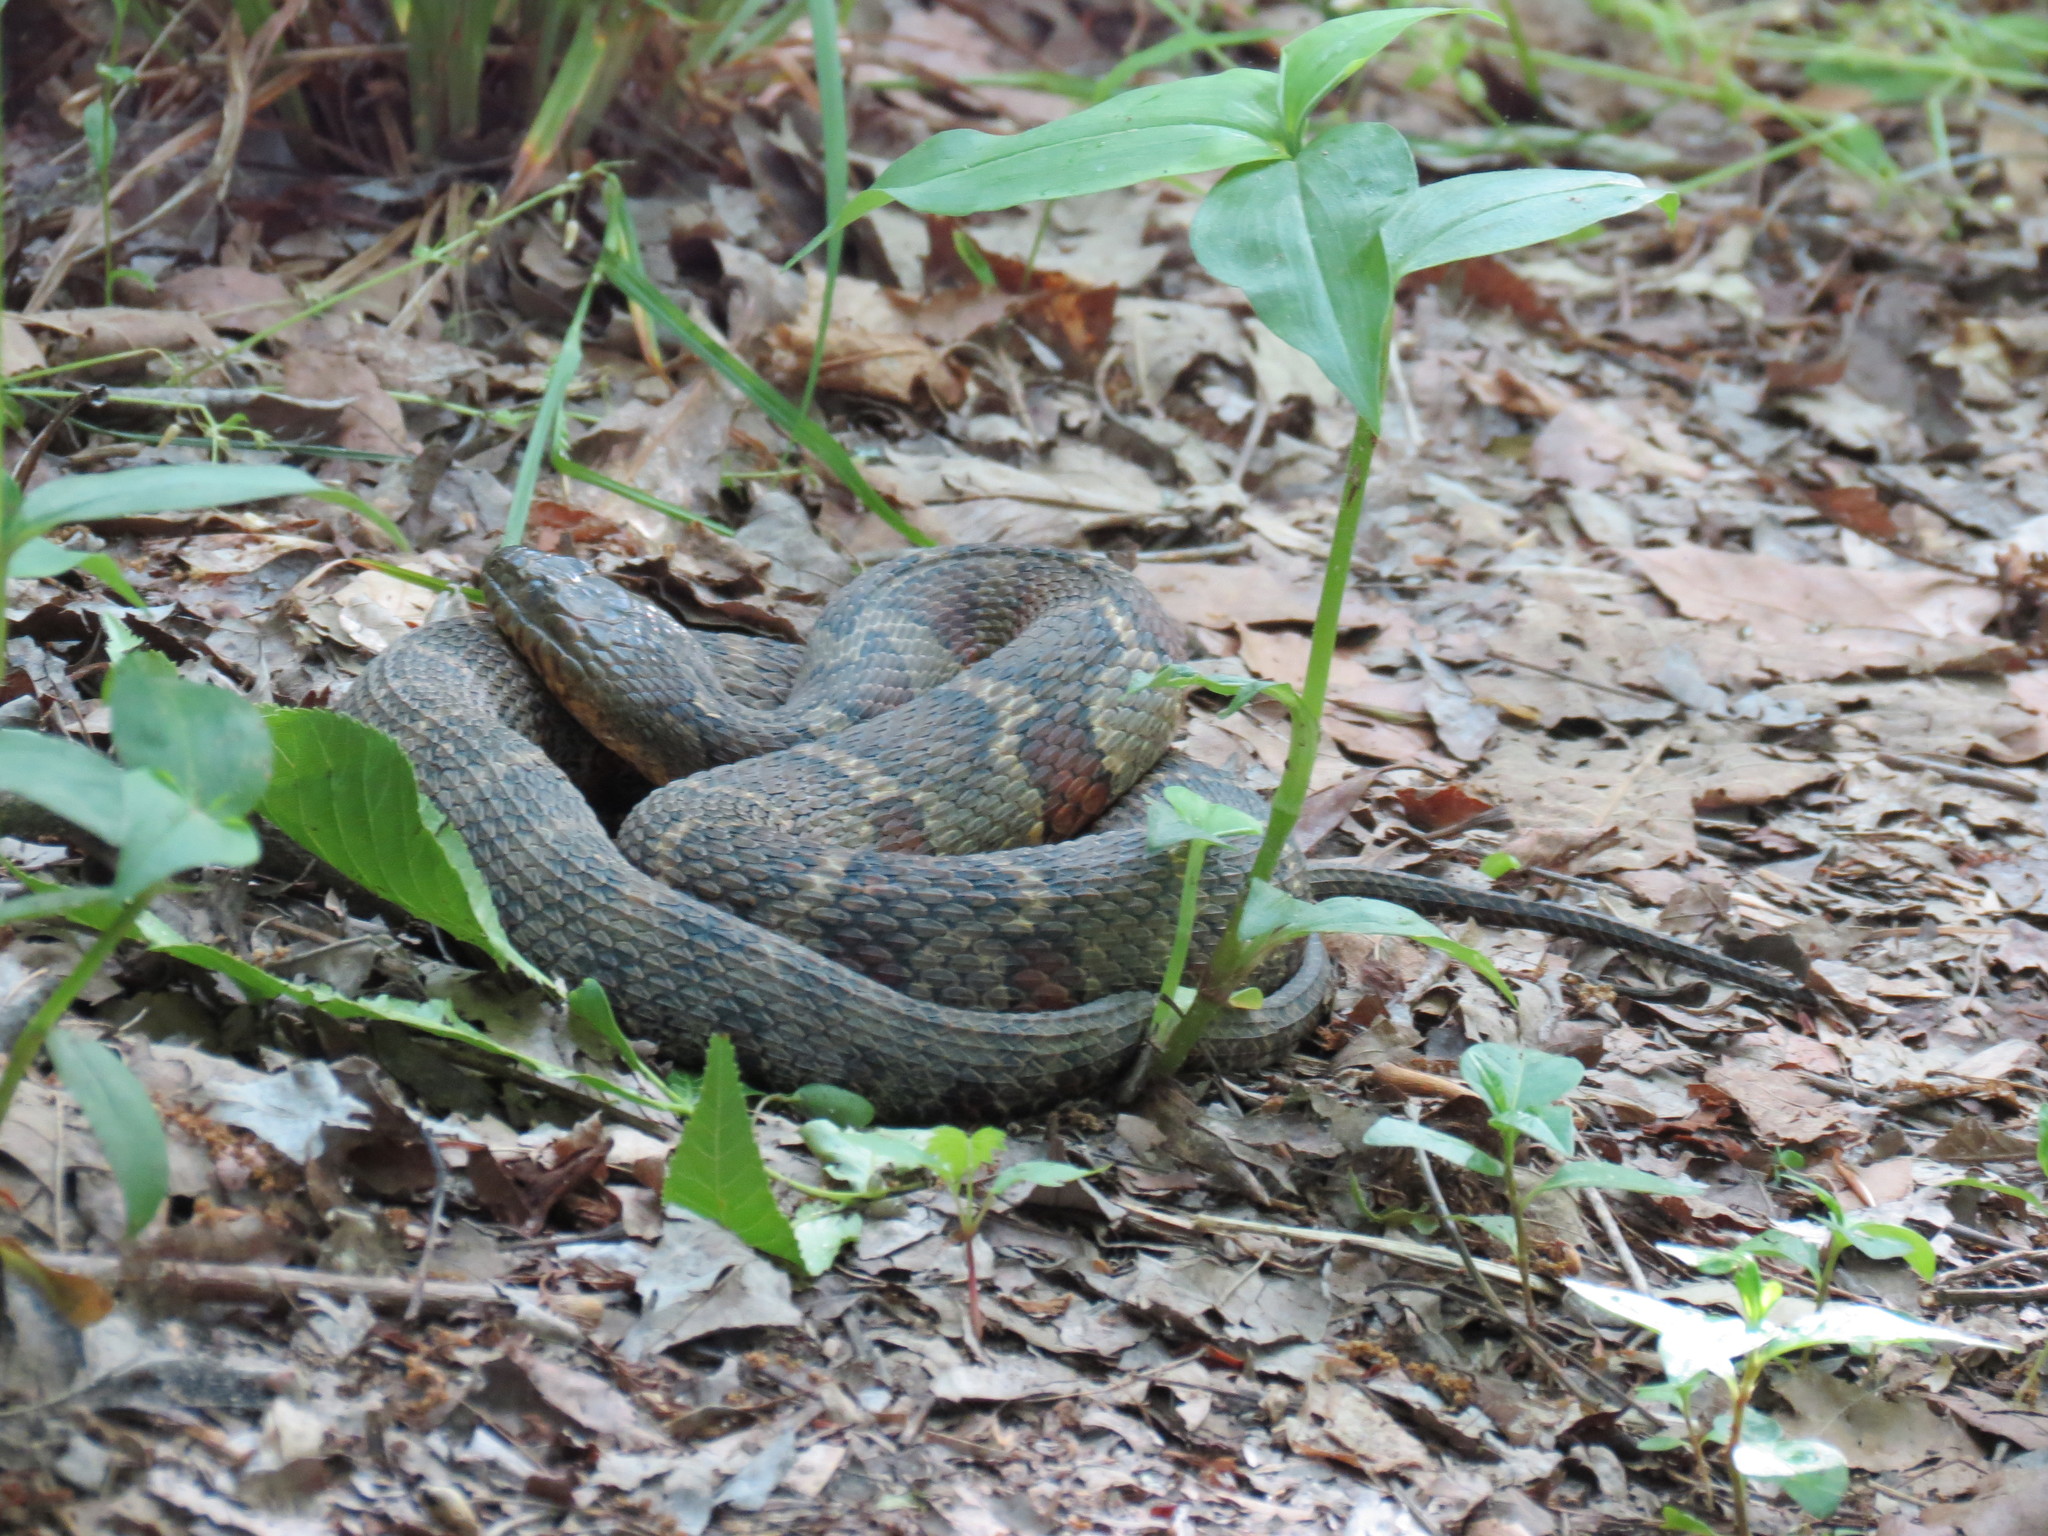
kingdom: Animalia
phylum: Chordata
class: Squamata
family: Colubridae
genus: Nerodia
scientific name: Nerodia sipedon
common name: Northern water snake
